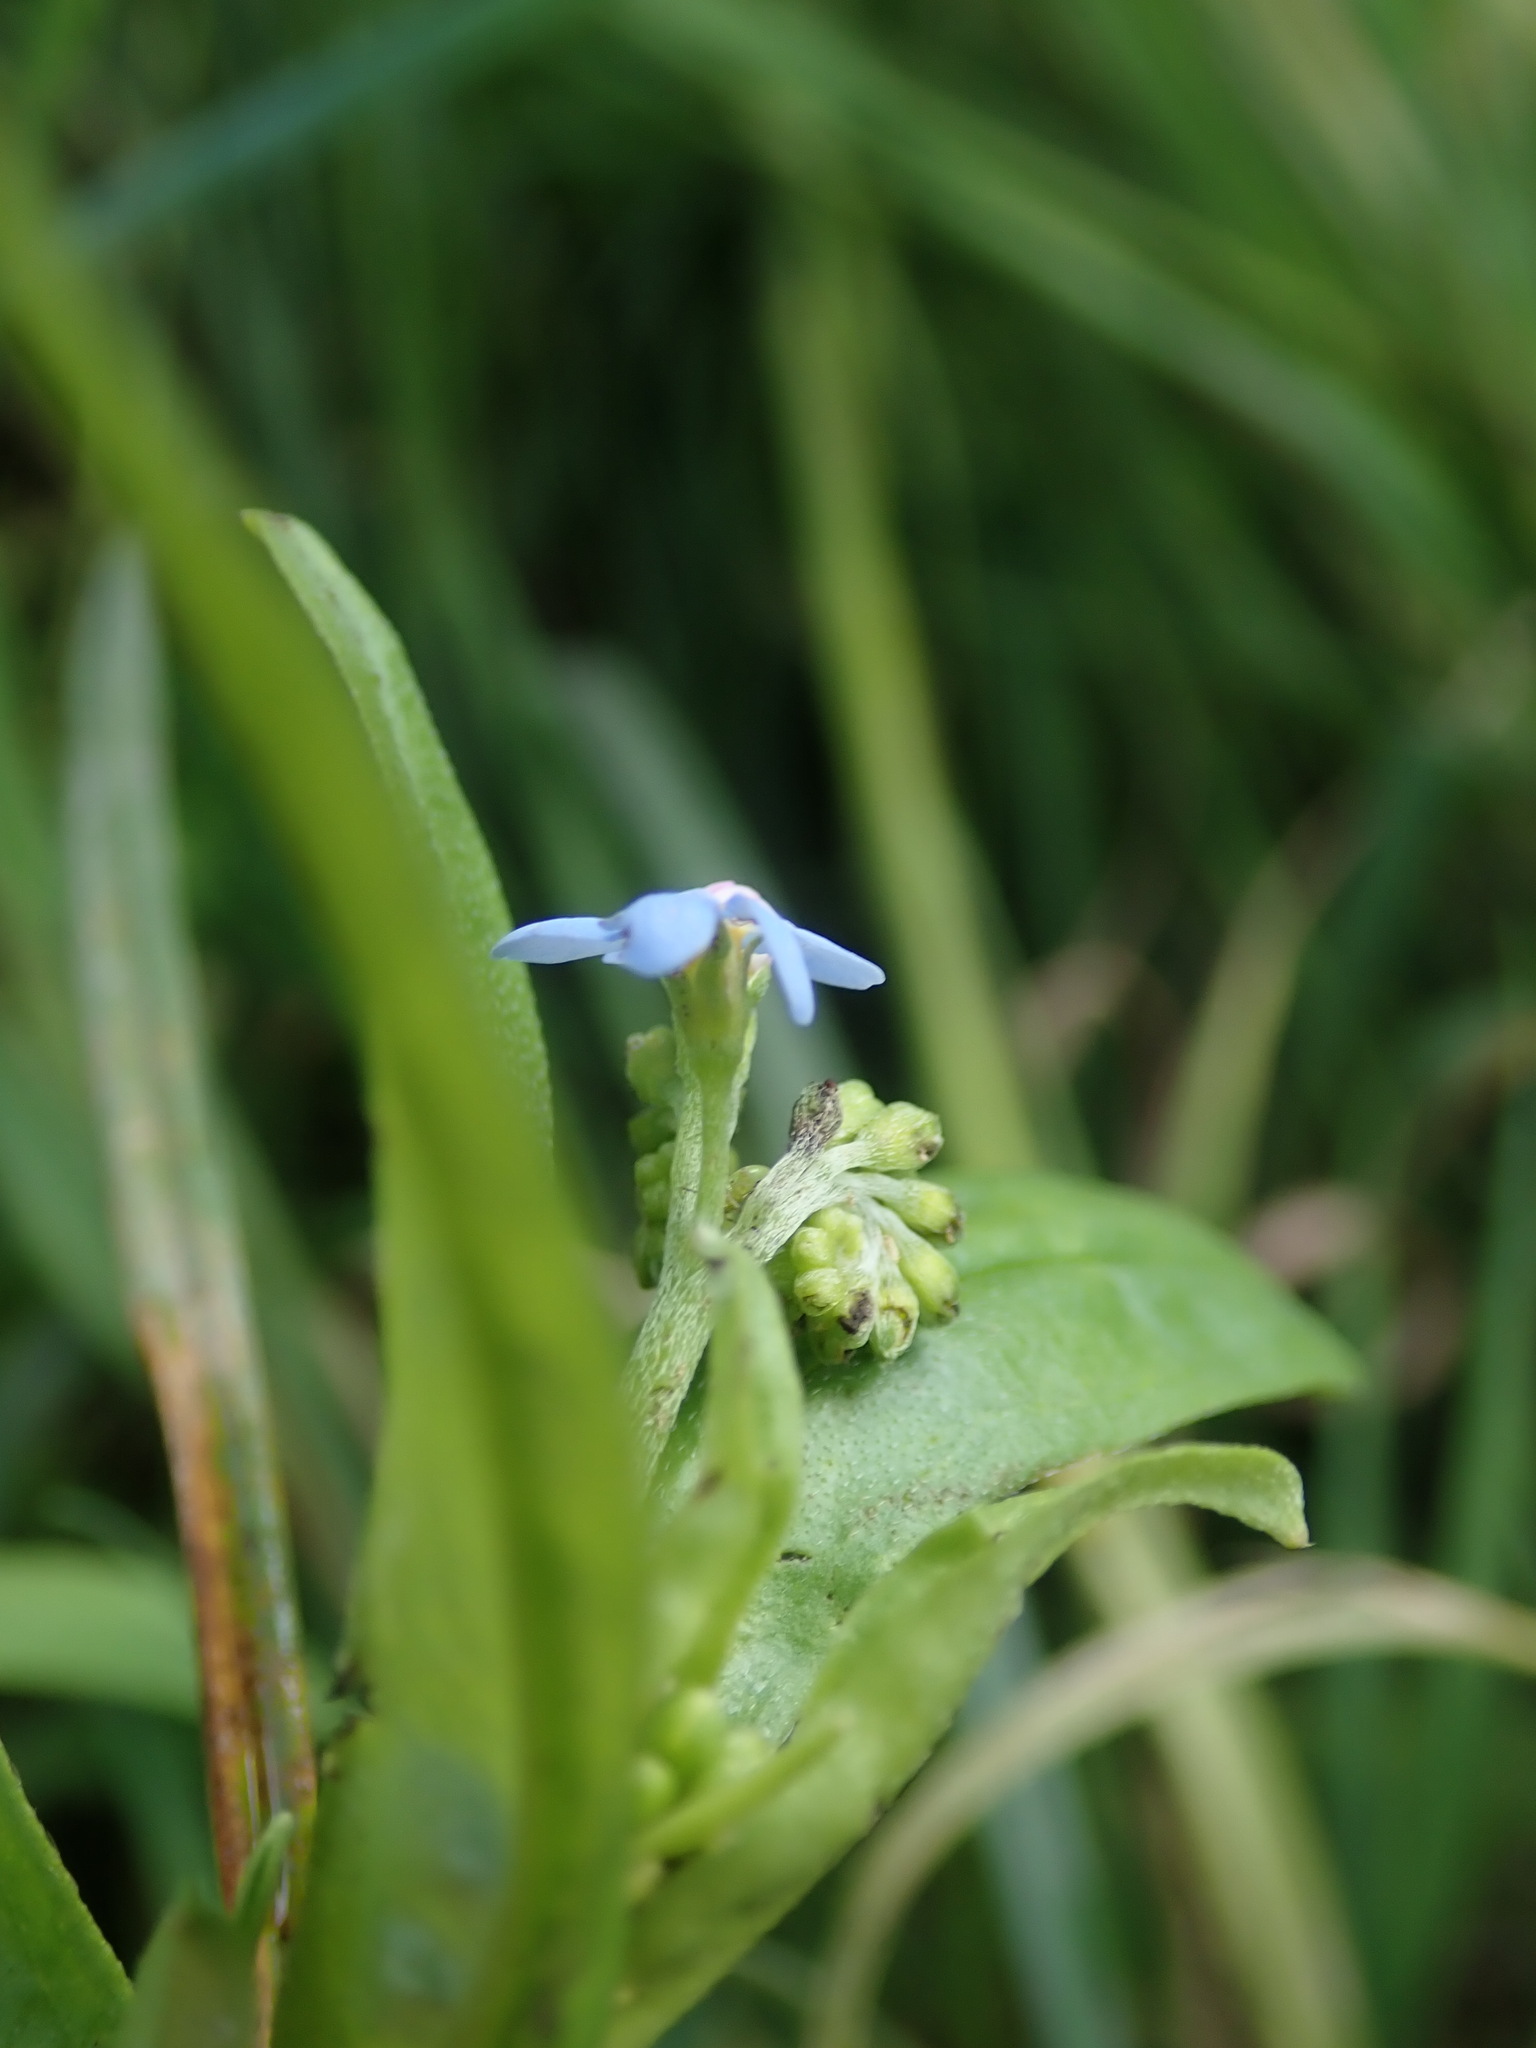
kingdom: Plantae
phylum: Tracheophyta
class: Magnoliopsida
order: Boraginales
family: Boraginaceae
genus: Myosotis
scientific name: Myosotis scorpioides
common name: Water forget-me-not
